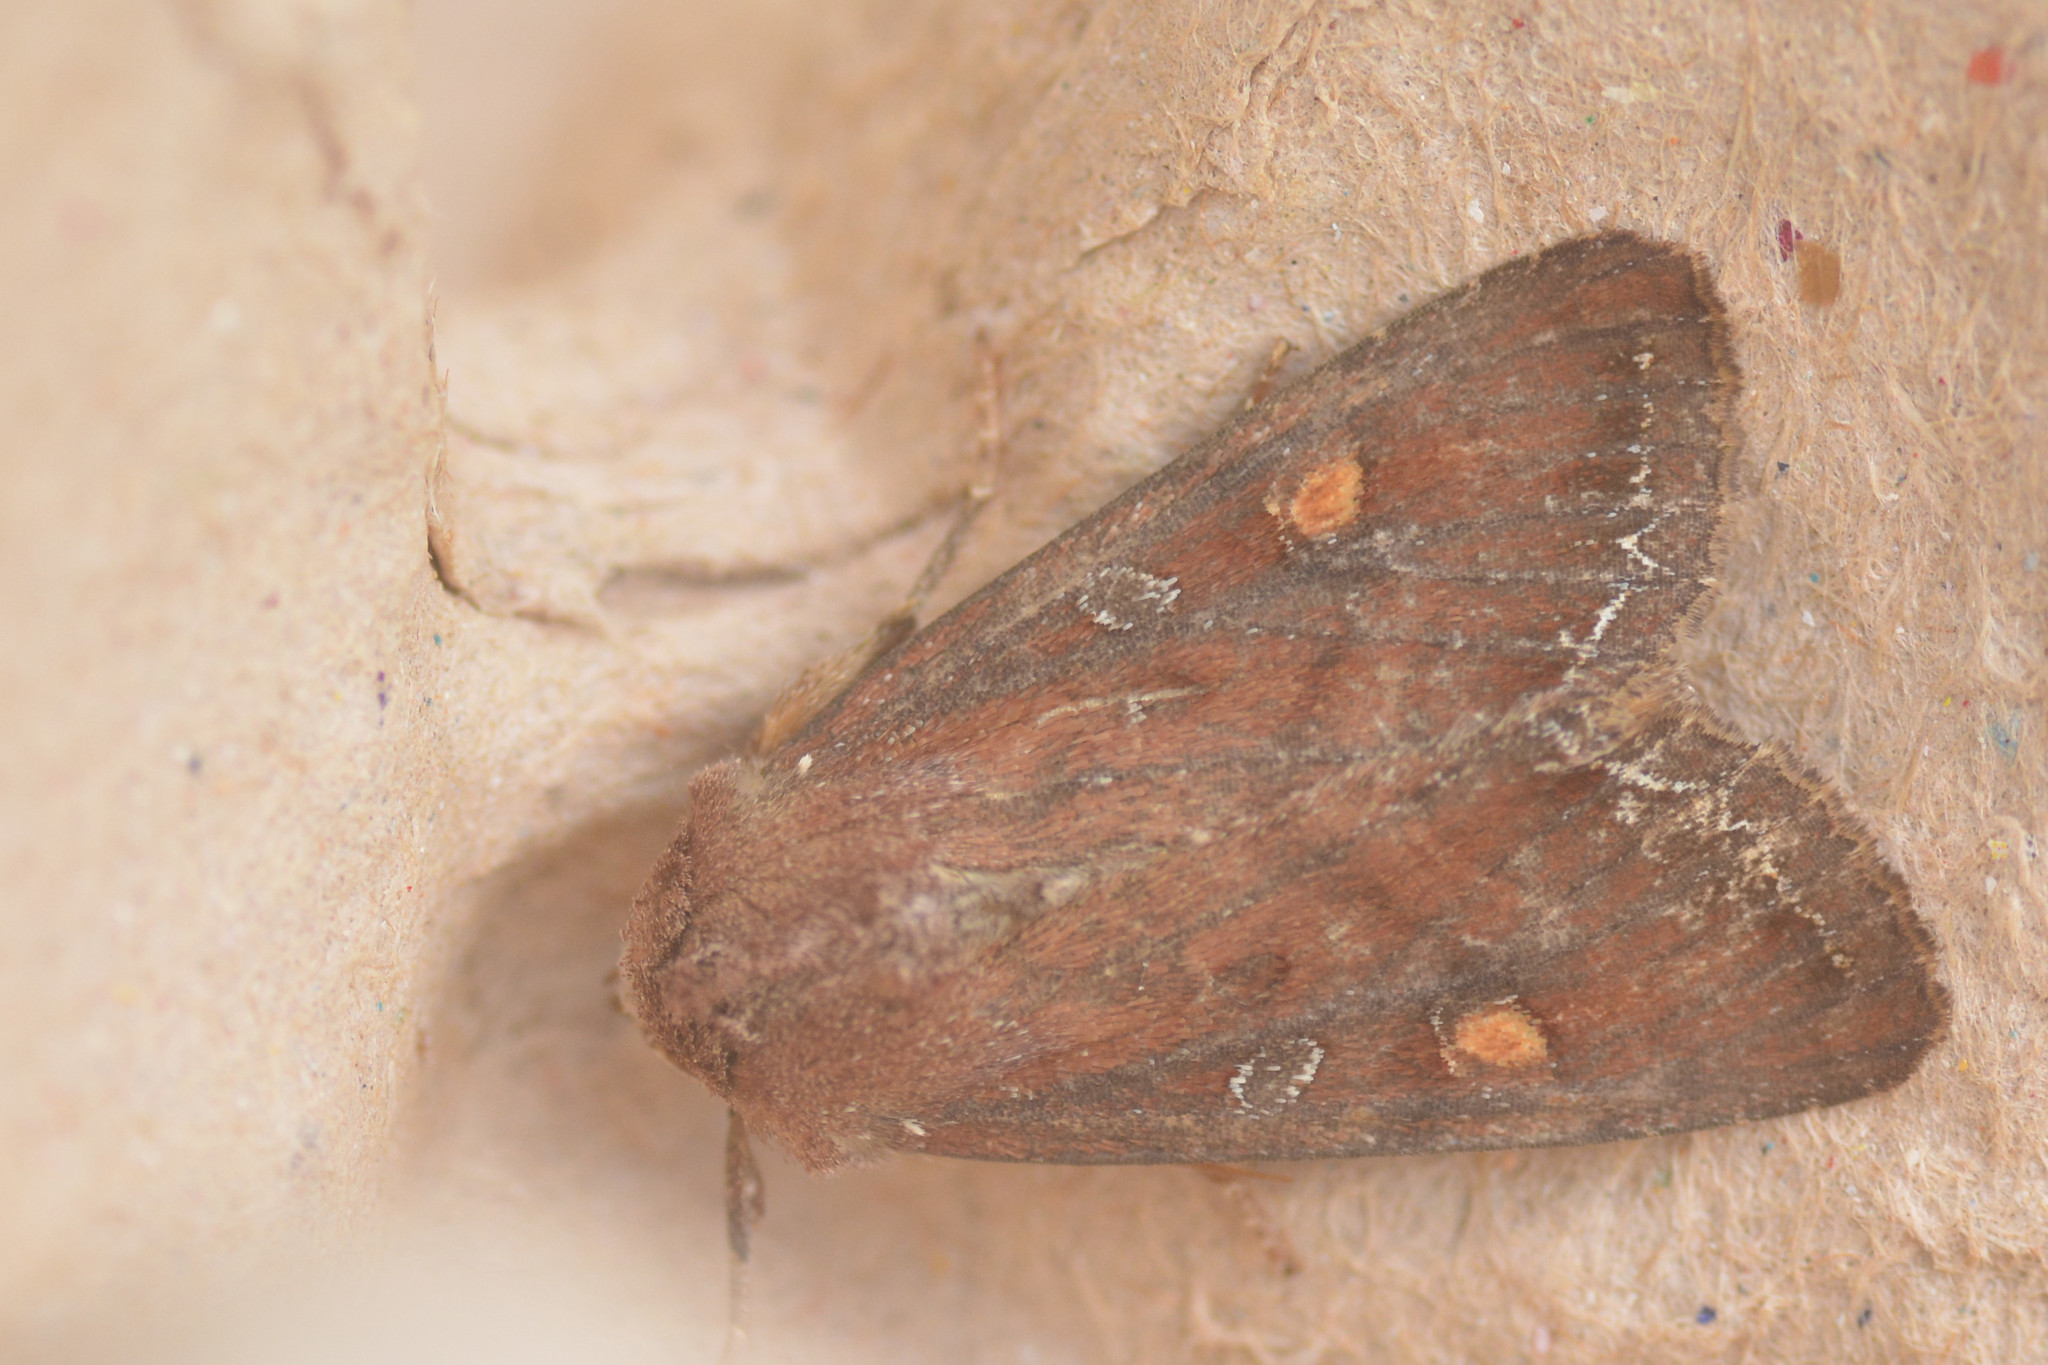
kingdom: Animalia
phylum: Arthropoda
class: Insecta
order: Lepidoptera
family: Noctuidae
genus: Lacanobia
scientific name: Lacanobia oleracea
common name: Bright-line brown-eye
